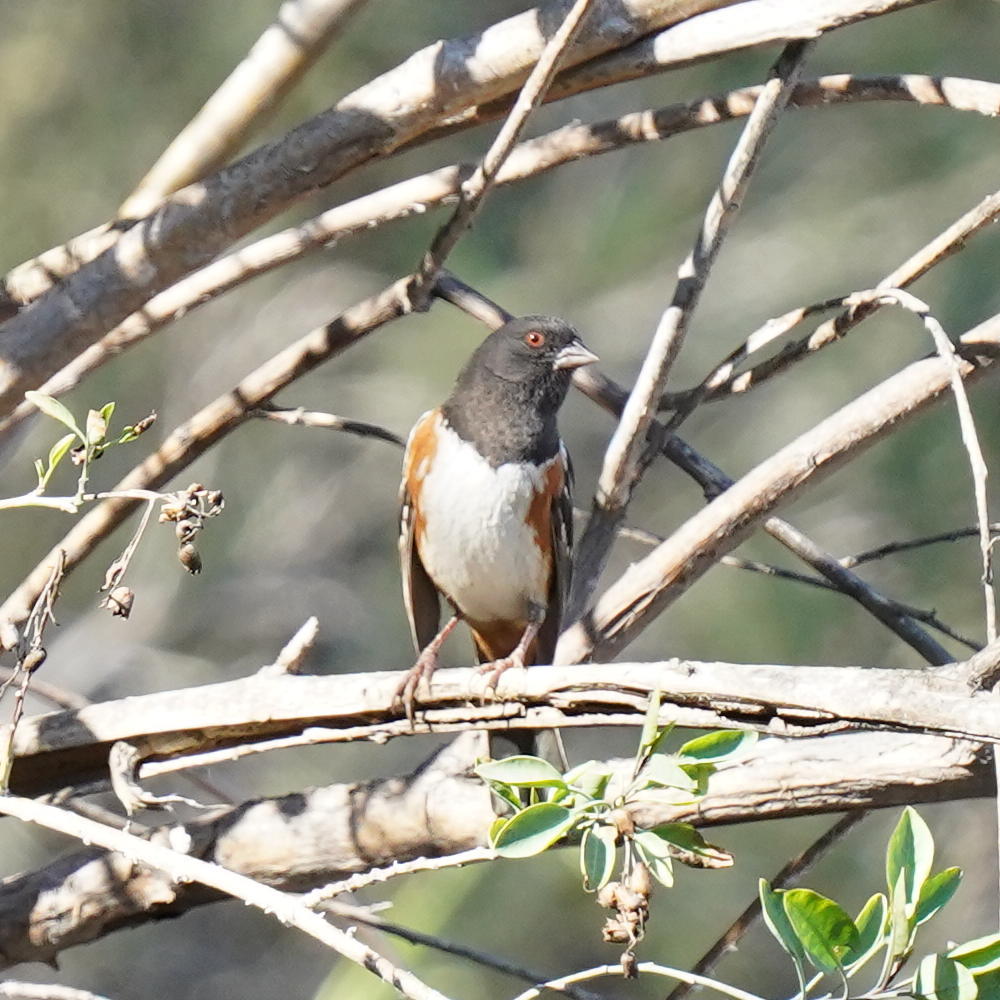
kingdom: Animalia
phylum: Chordata
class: Aves
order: Passeriformes
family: Passerellidae
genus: Pipilo
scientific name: Pipilo maculatus
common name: Spotted towhee
